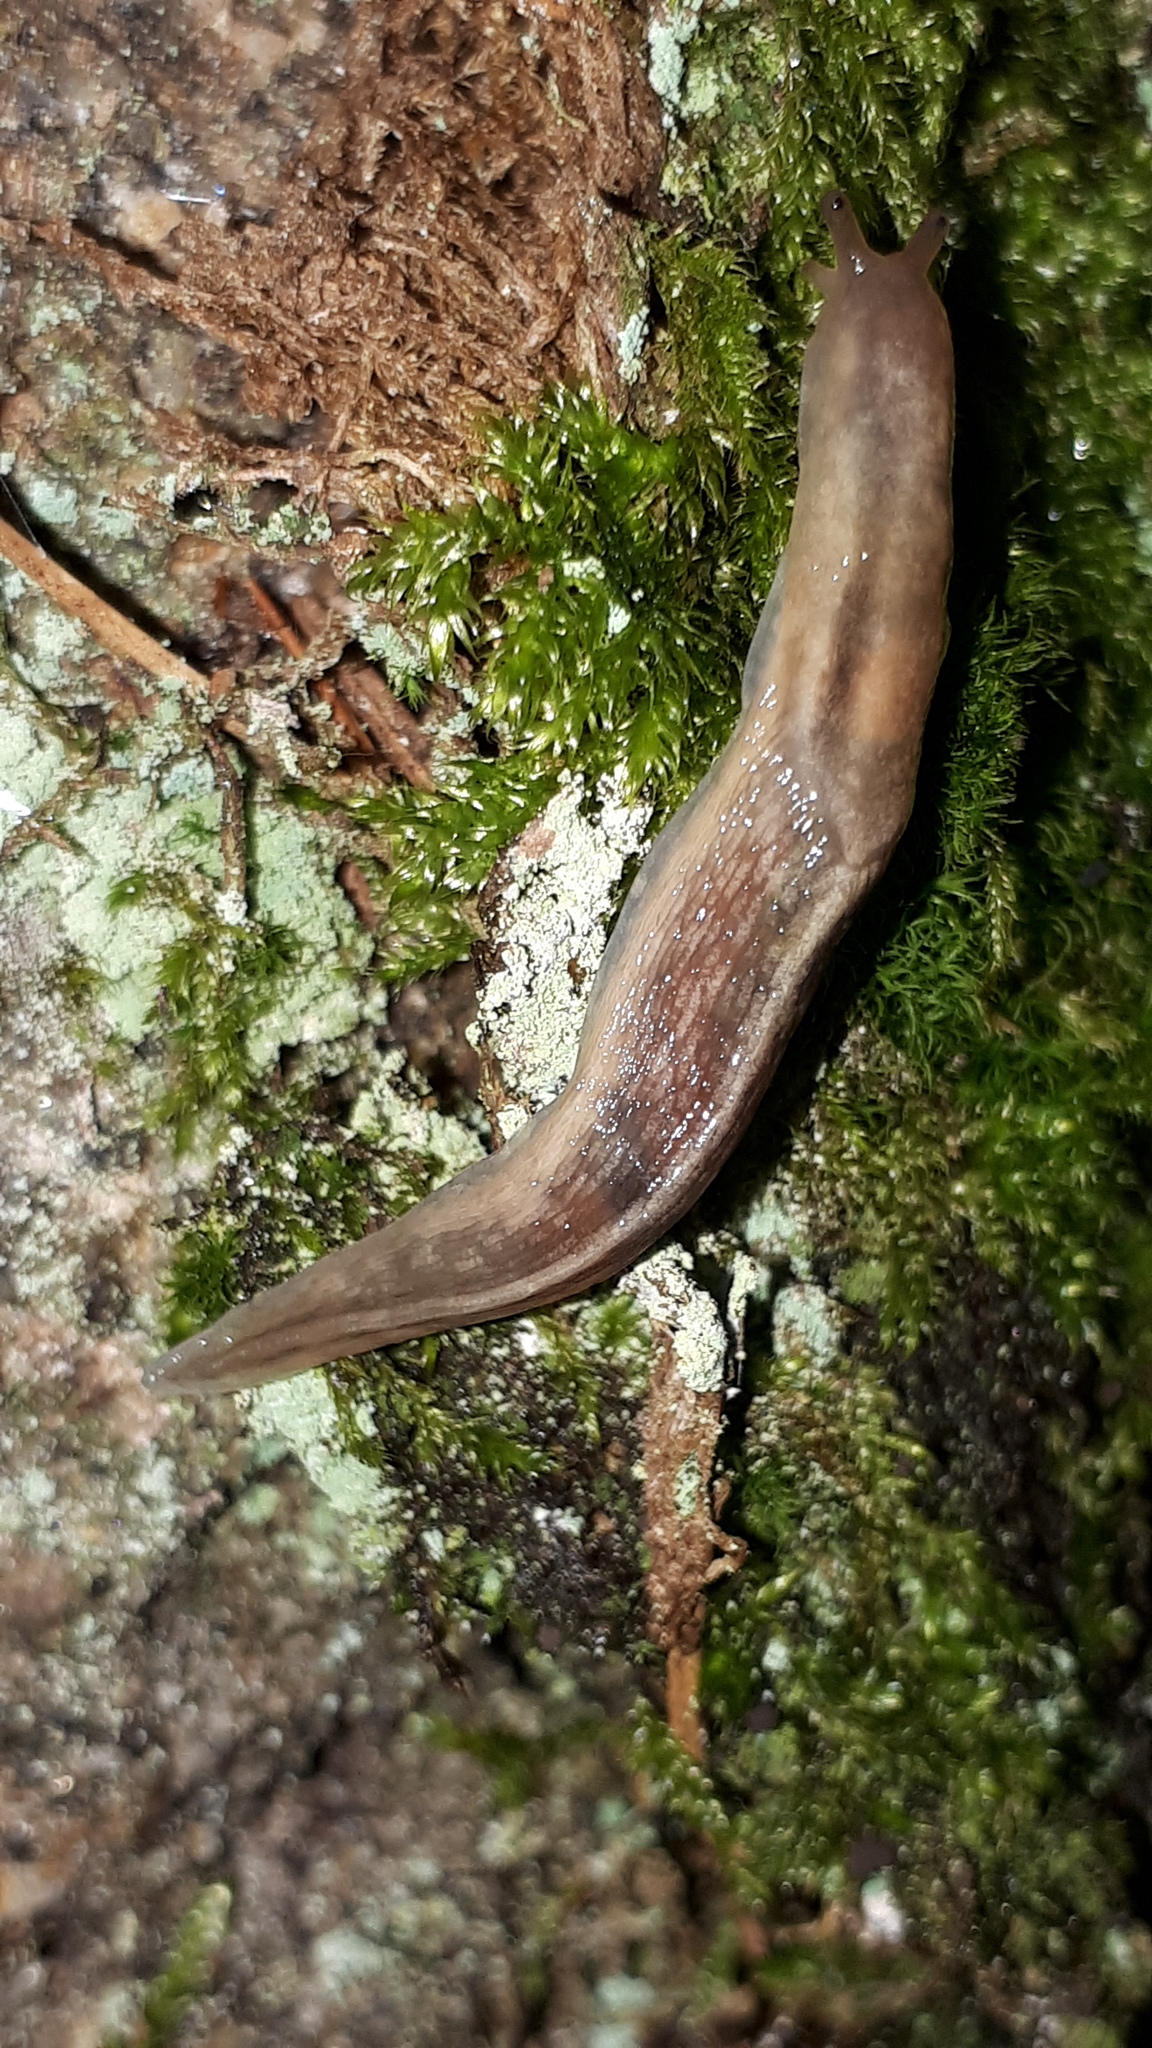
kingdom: Animalia
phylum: Mollusca
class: Gastropoda
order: Stylommatophora
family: Limacidae
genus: Lehmannia
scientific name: Lehmannia marginata
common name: Tree slug
